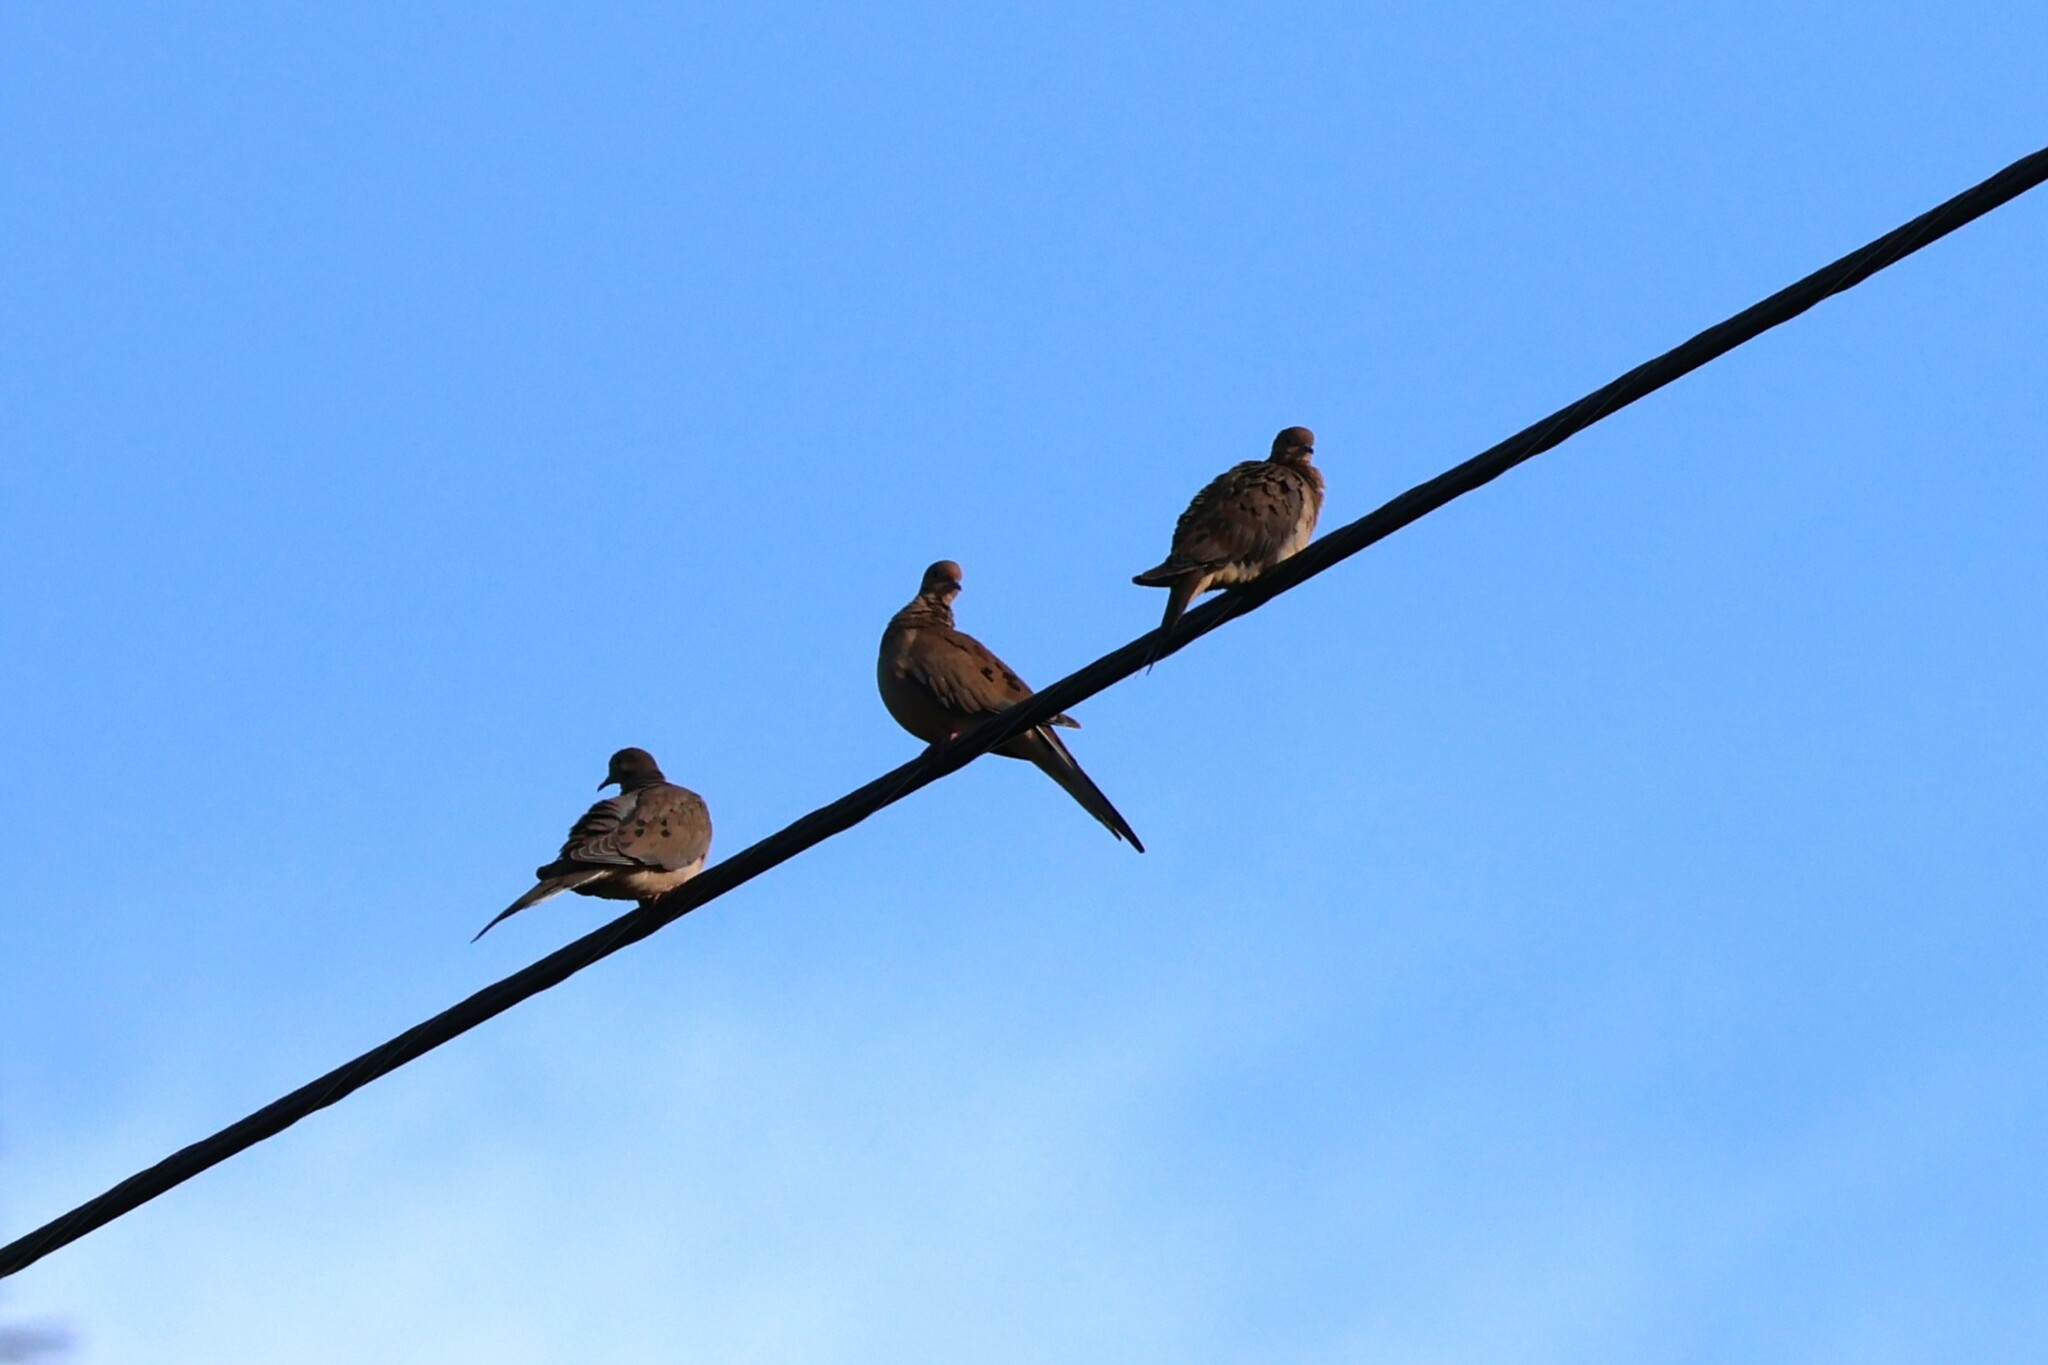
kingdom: Animalia
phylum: Chordata
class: Aves
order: Columbiformes
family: Columbidae
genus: Zenaida
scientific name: Zenaida macroura
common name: Mourning dove
